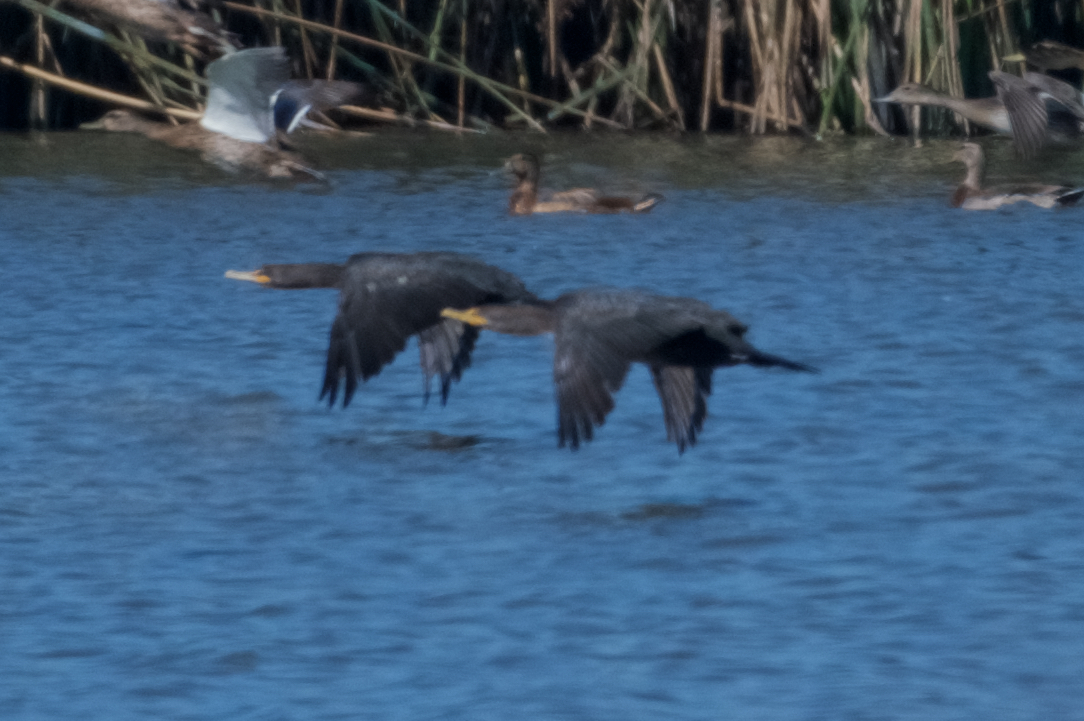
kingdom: Animalia
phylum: Chordata
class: Aves
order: Suliformes
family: Phalacrocoracidae
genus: Phalacrocorax
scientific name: Phalacrocorax auritus
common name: Double-crested cormorant
